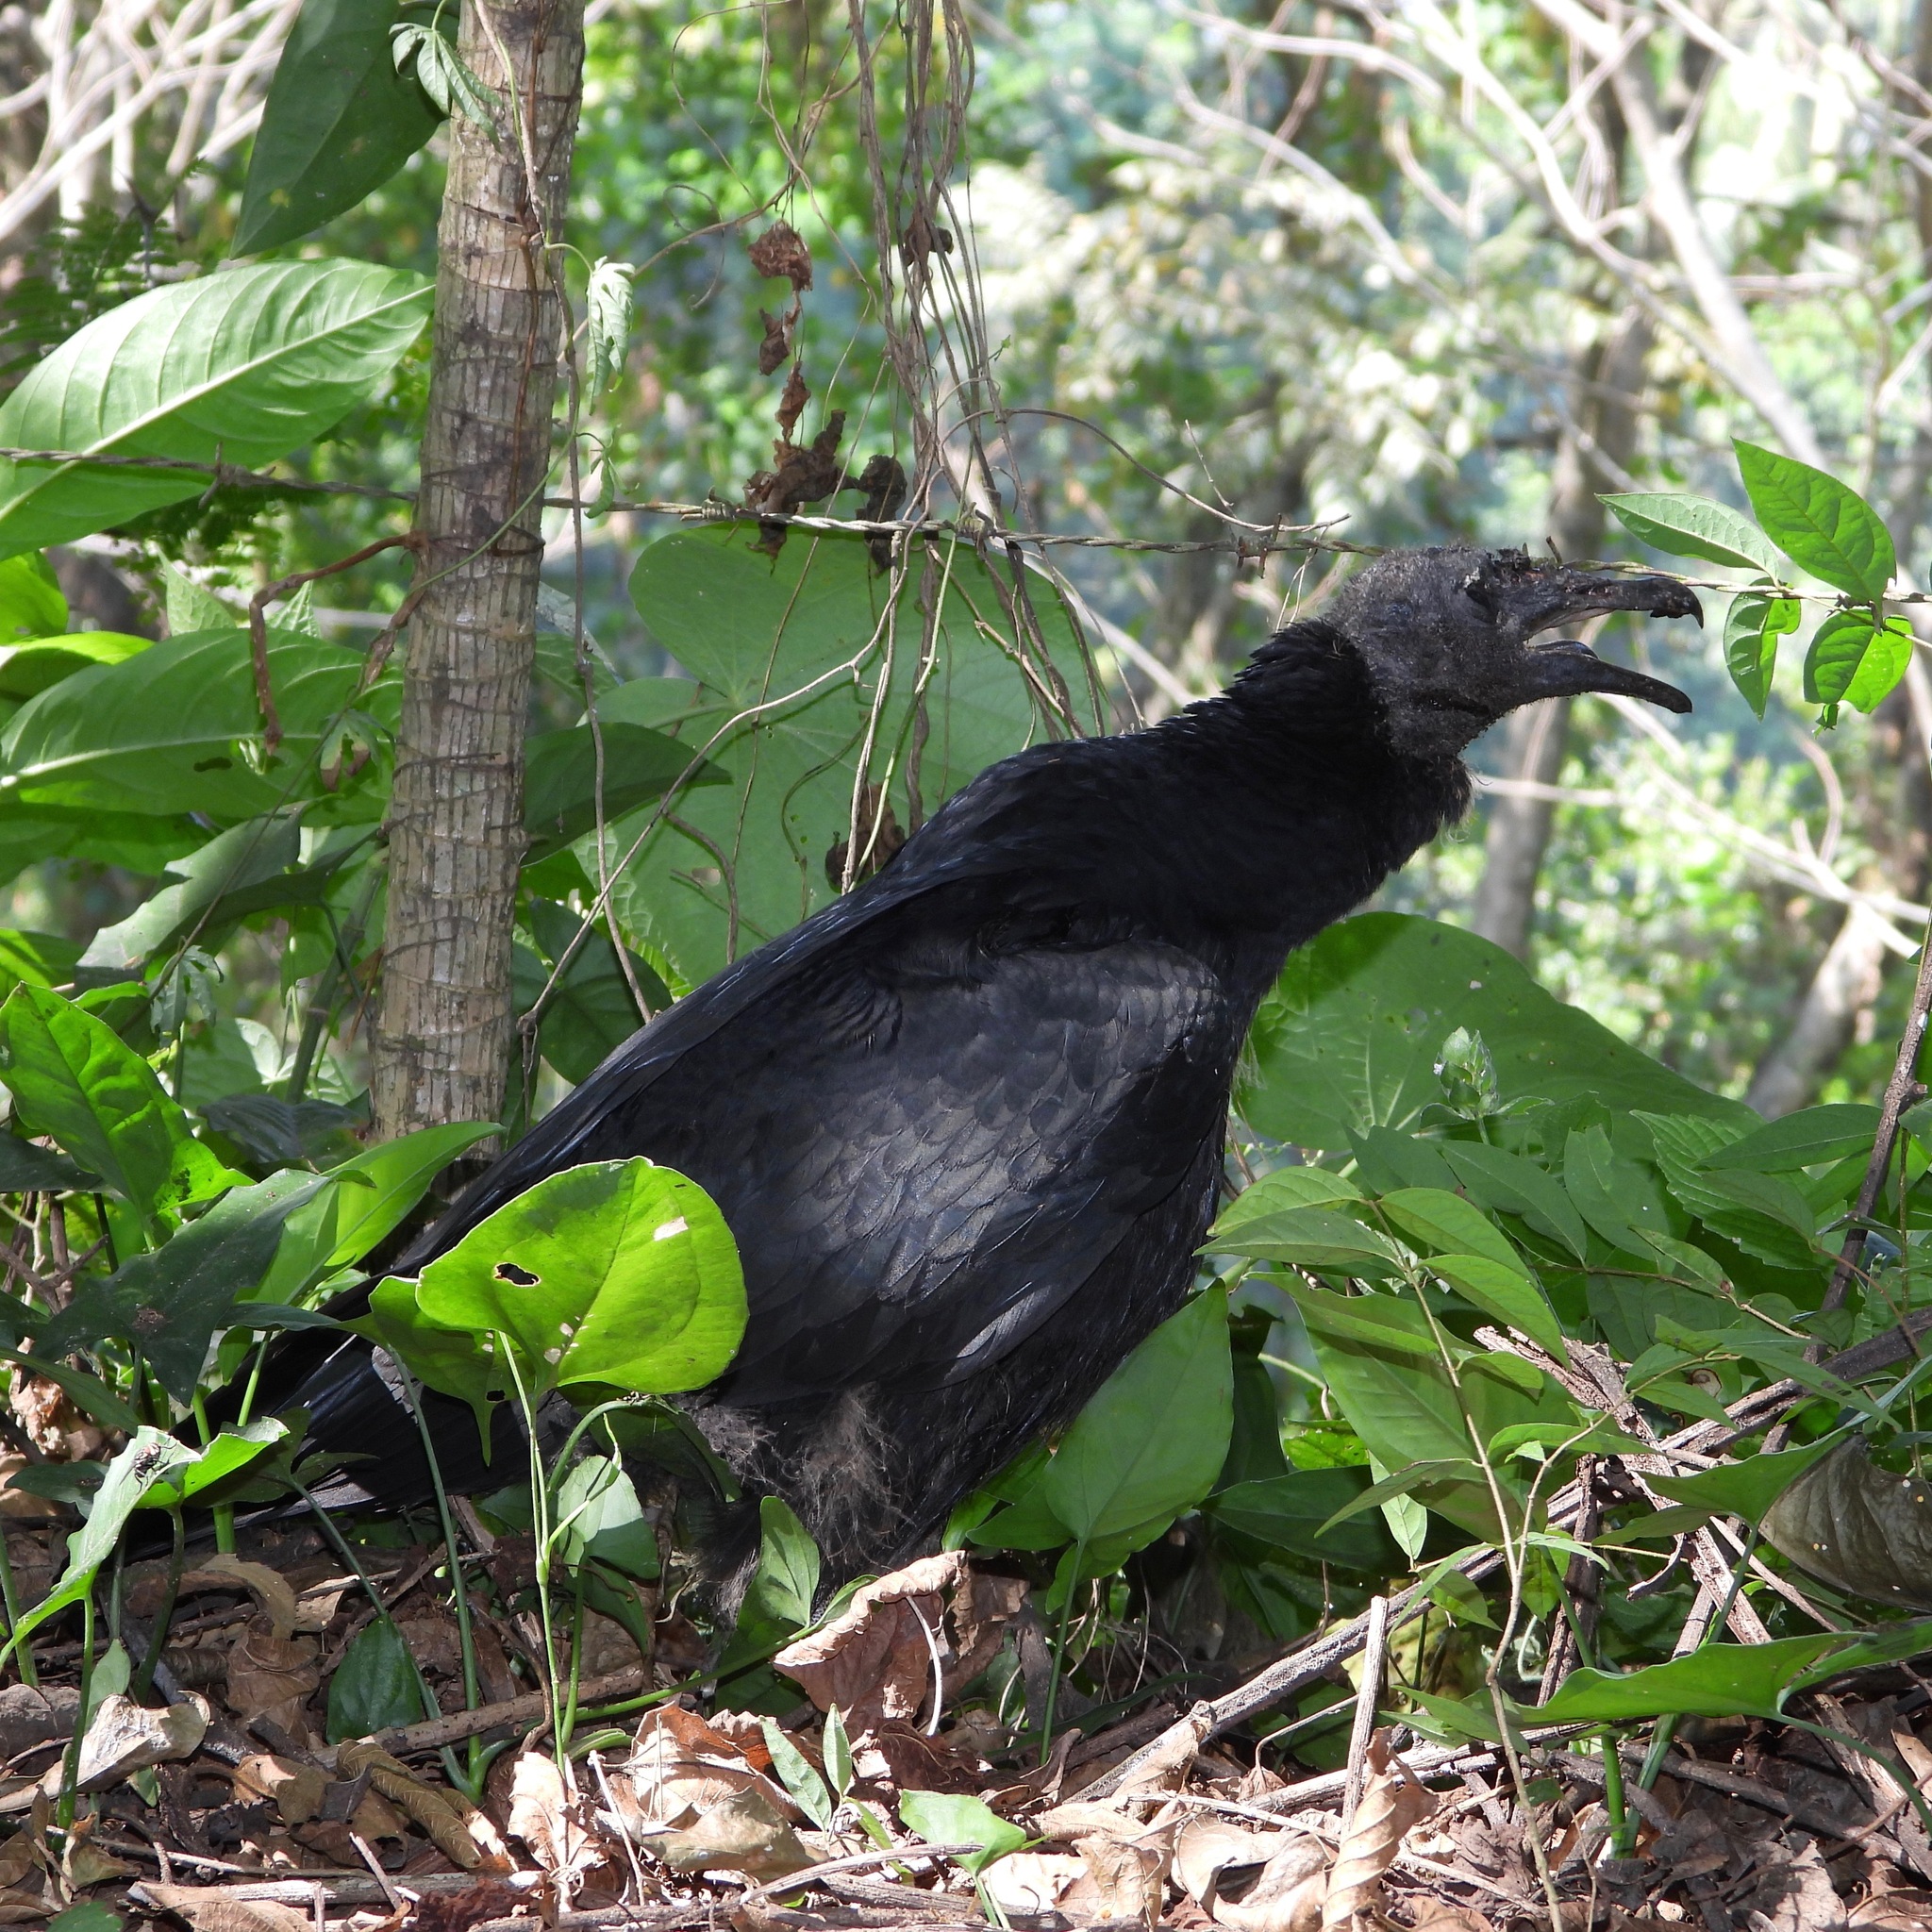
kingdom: Animalia
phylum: Chordata
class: Aves
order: Accipitriformes
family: Cathartidae
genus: Coragyps
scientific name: Coragyps atratus
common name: Black vulture
